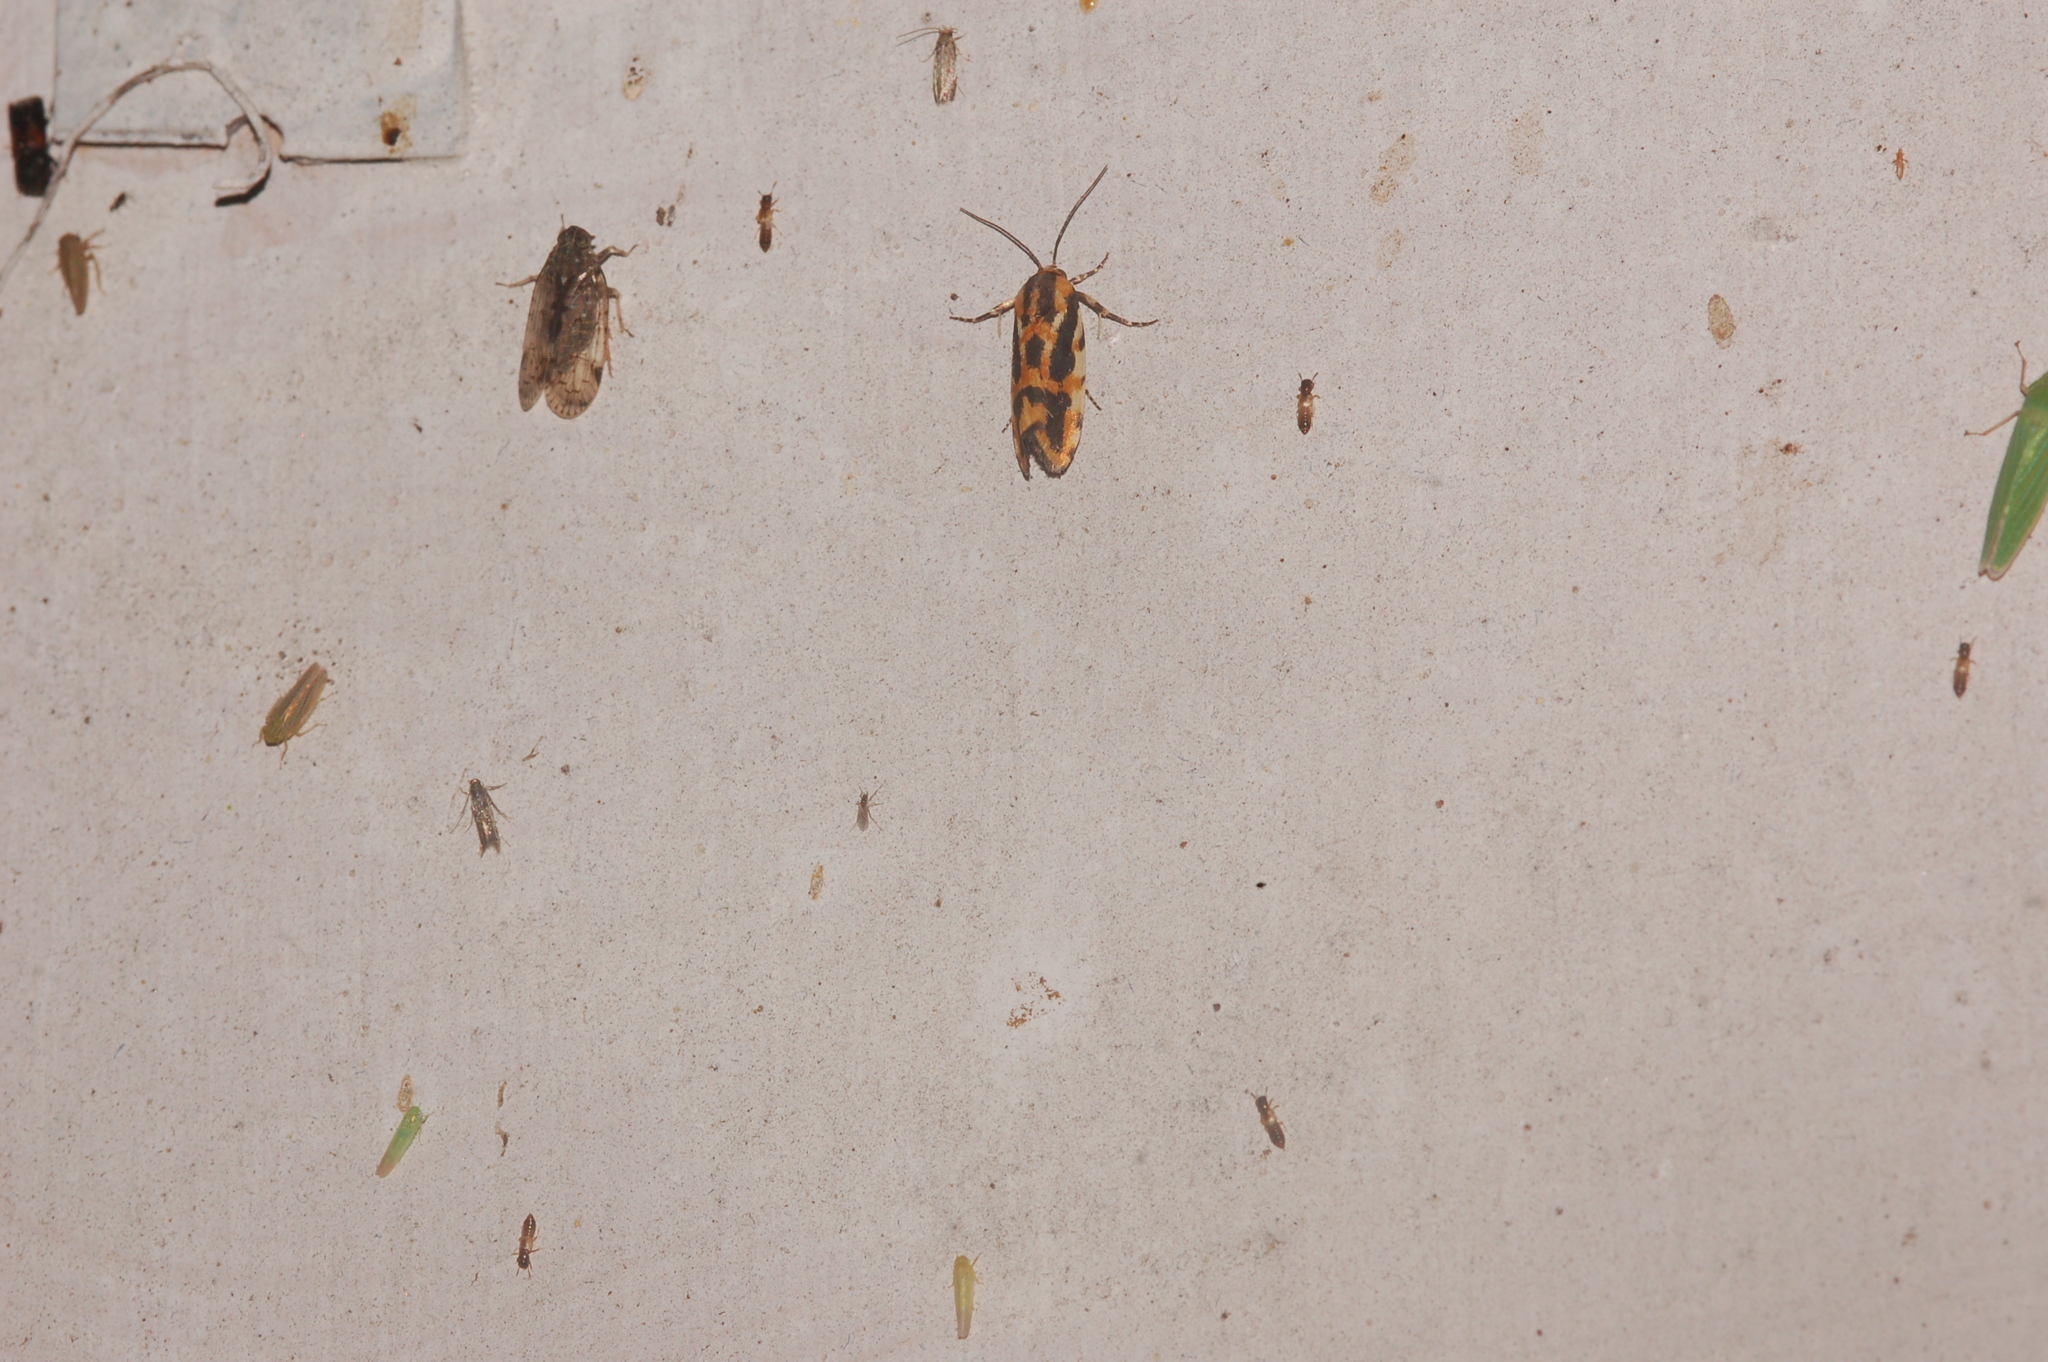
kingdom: Animalia
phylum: Arthropoda
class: Insecta
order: Lepidoptera
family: Noctuidae
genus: Acontia
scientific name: Acontia leo
